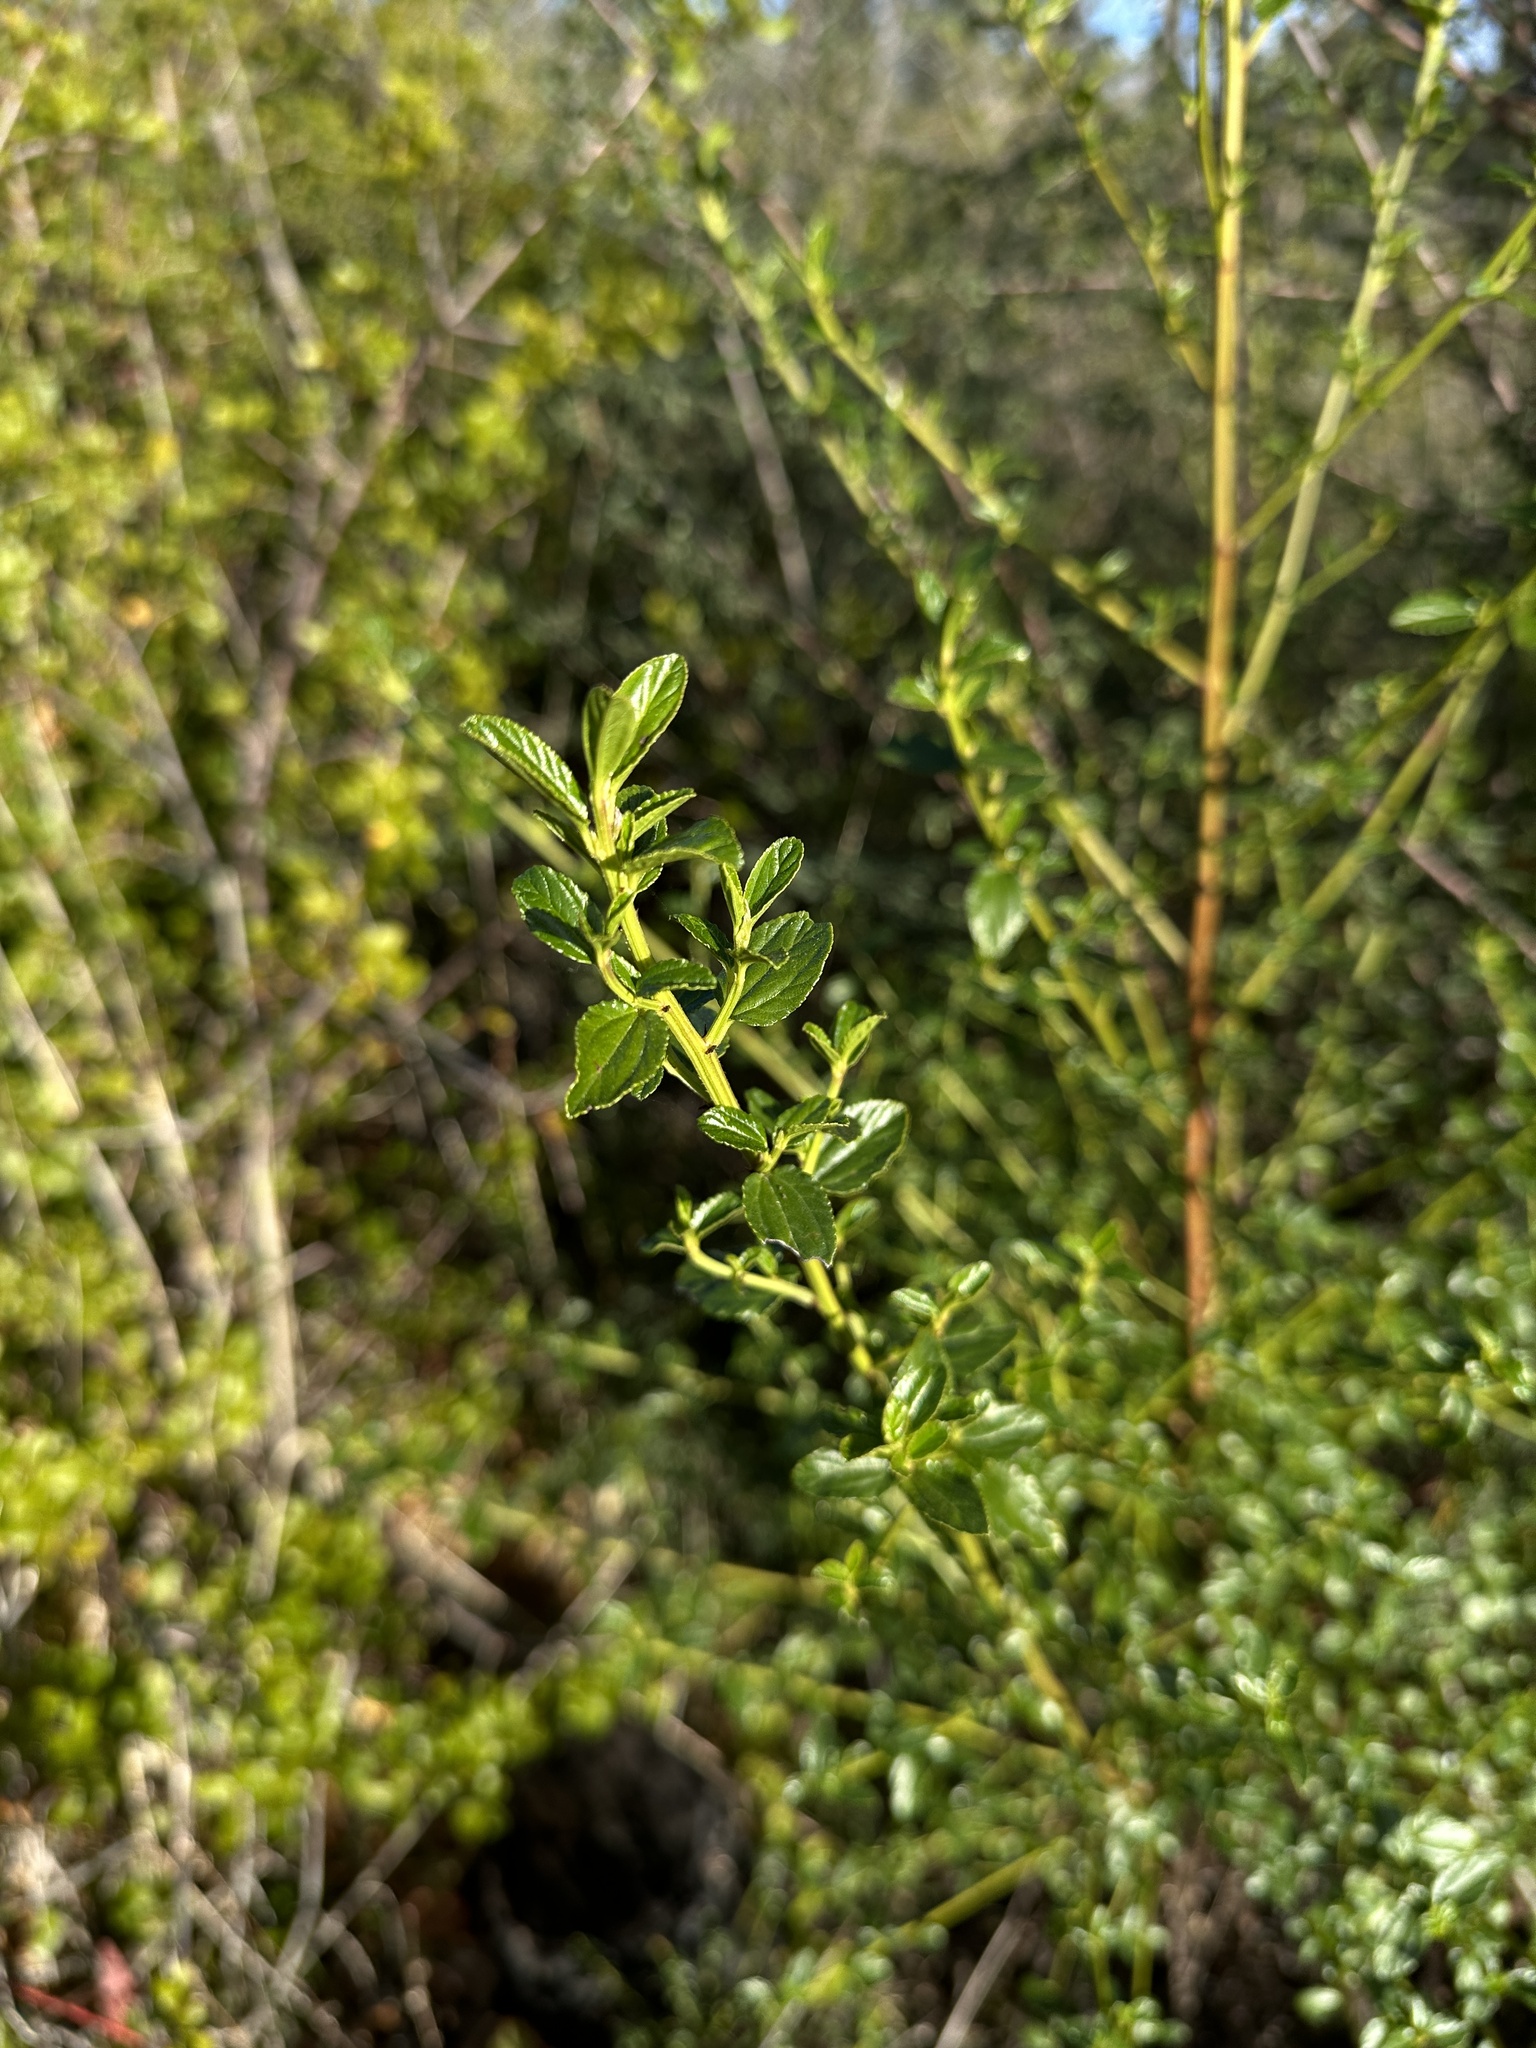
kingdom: Plantae
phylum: Tracheophyta
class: Magnoliopsida
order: Rosales
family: Rhamnaceae
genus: Ceanothus
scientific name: Ceanothus thyrsiflorus
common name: California-lilac
